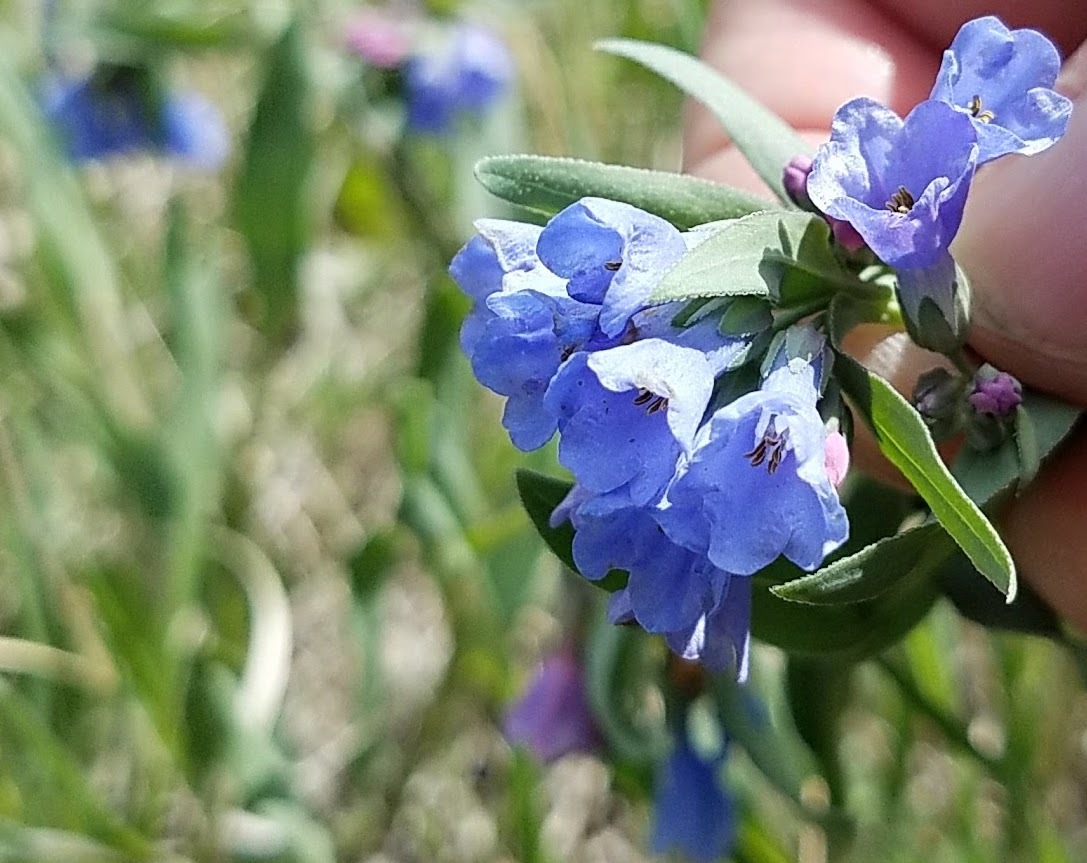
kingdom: Plantae
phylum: Tracheophyta
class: Magnoliopsida
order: Boraginales
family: Boraginaceae
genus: Mertensia
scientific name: Mertensia lanceolata
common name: Lance-leaved bluebells
